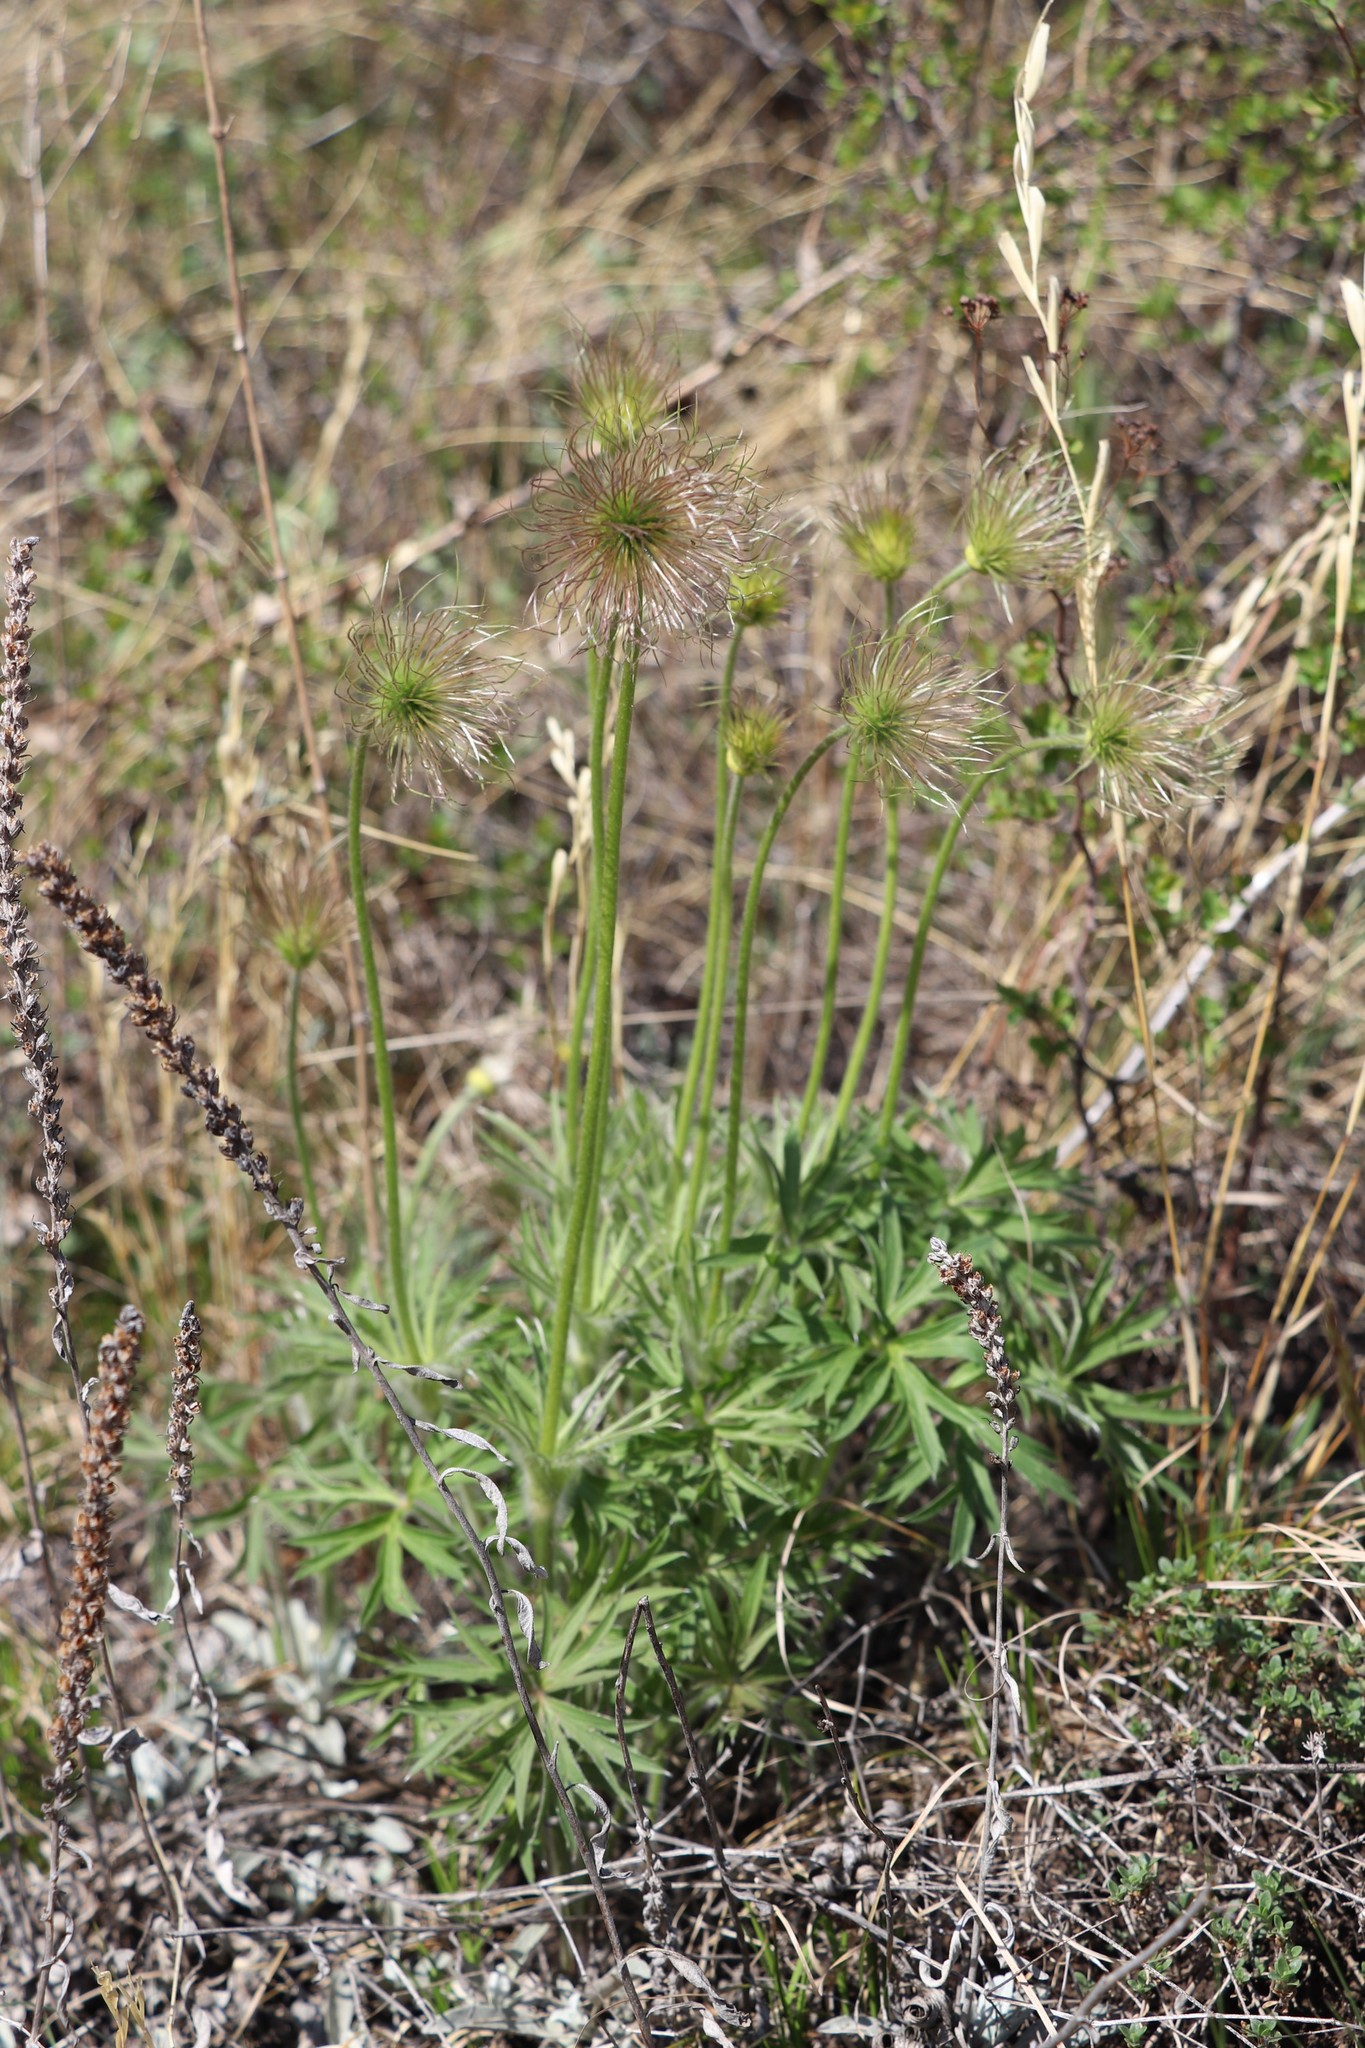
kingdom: Plantae
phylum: Tracheophyta
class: Magnoliopsida
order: Ranunculales
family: Ranunculaceae
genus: Pulsatilla
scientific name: Pulsatilla patens
